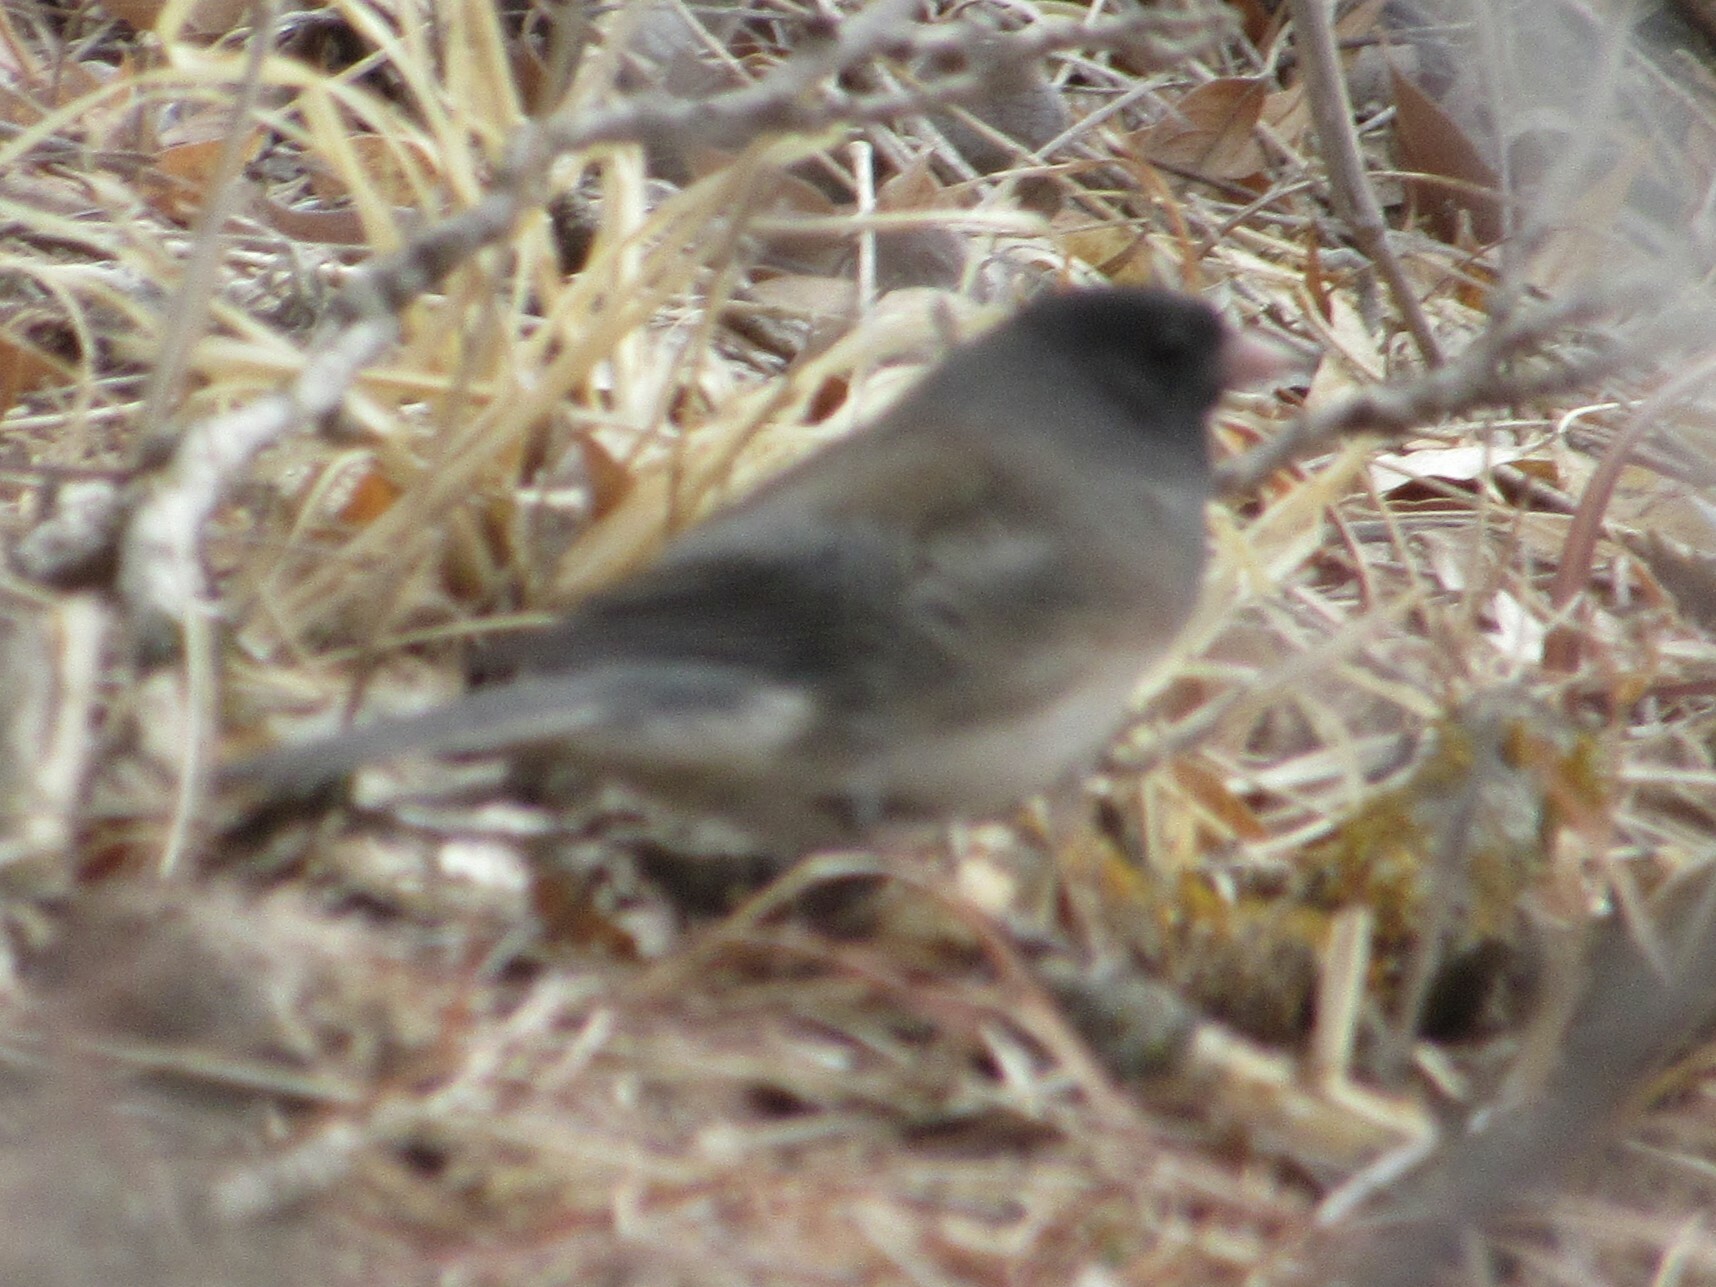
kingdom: Animalia
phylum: Chordata
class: Aves
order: Passeriformes
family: Passerellidae
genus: Junco
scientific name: Junco hyemalis
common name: Dark-eyed junco
